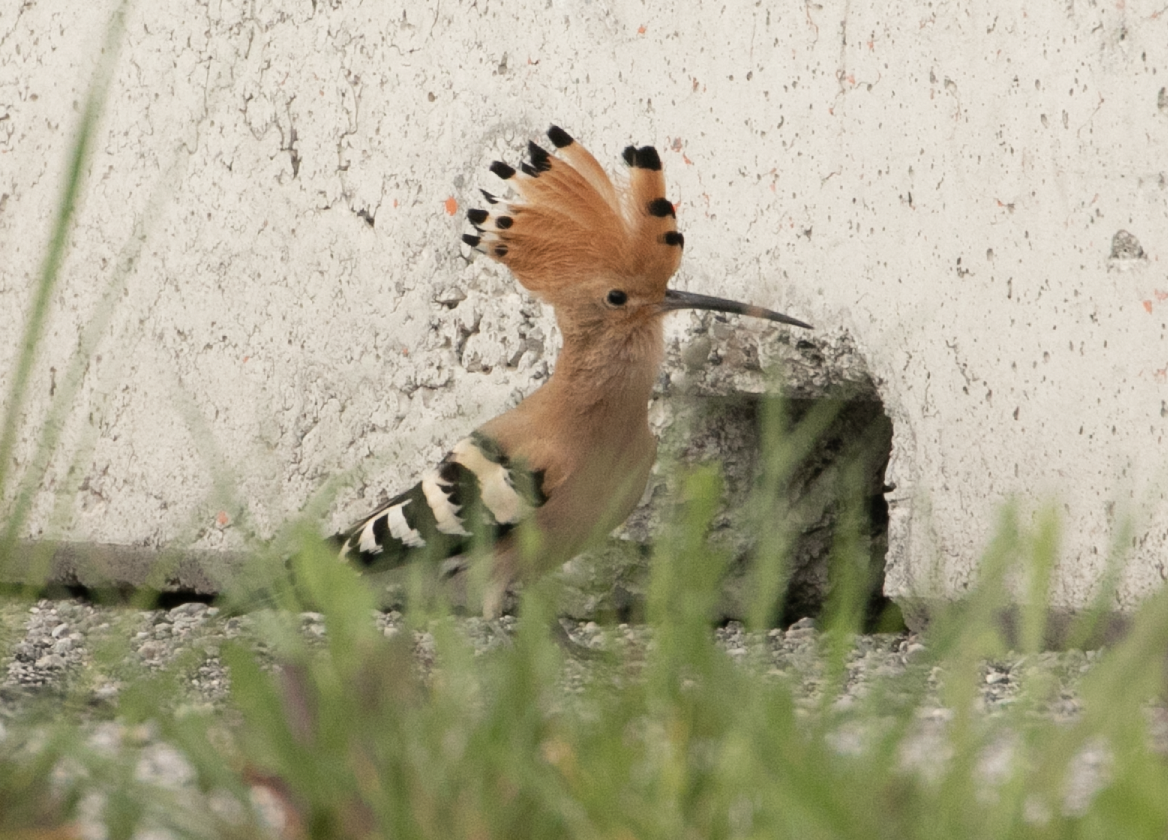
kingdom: Animalia
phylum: Chordata
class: Aves
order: Bucerotiformes
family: Upupidae
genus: Upupa
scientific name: Upupa epops
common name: Eurasian hoopoe
